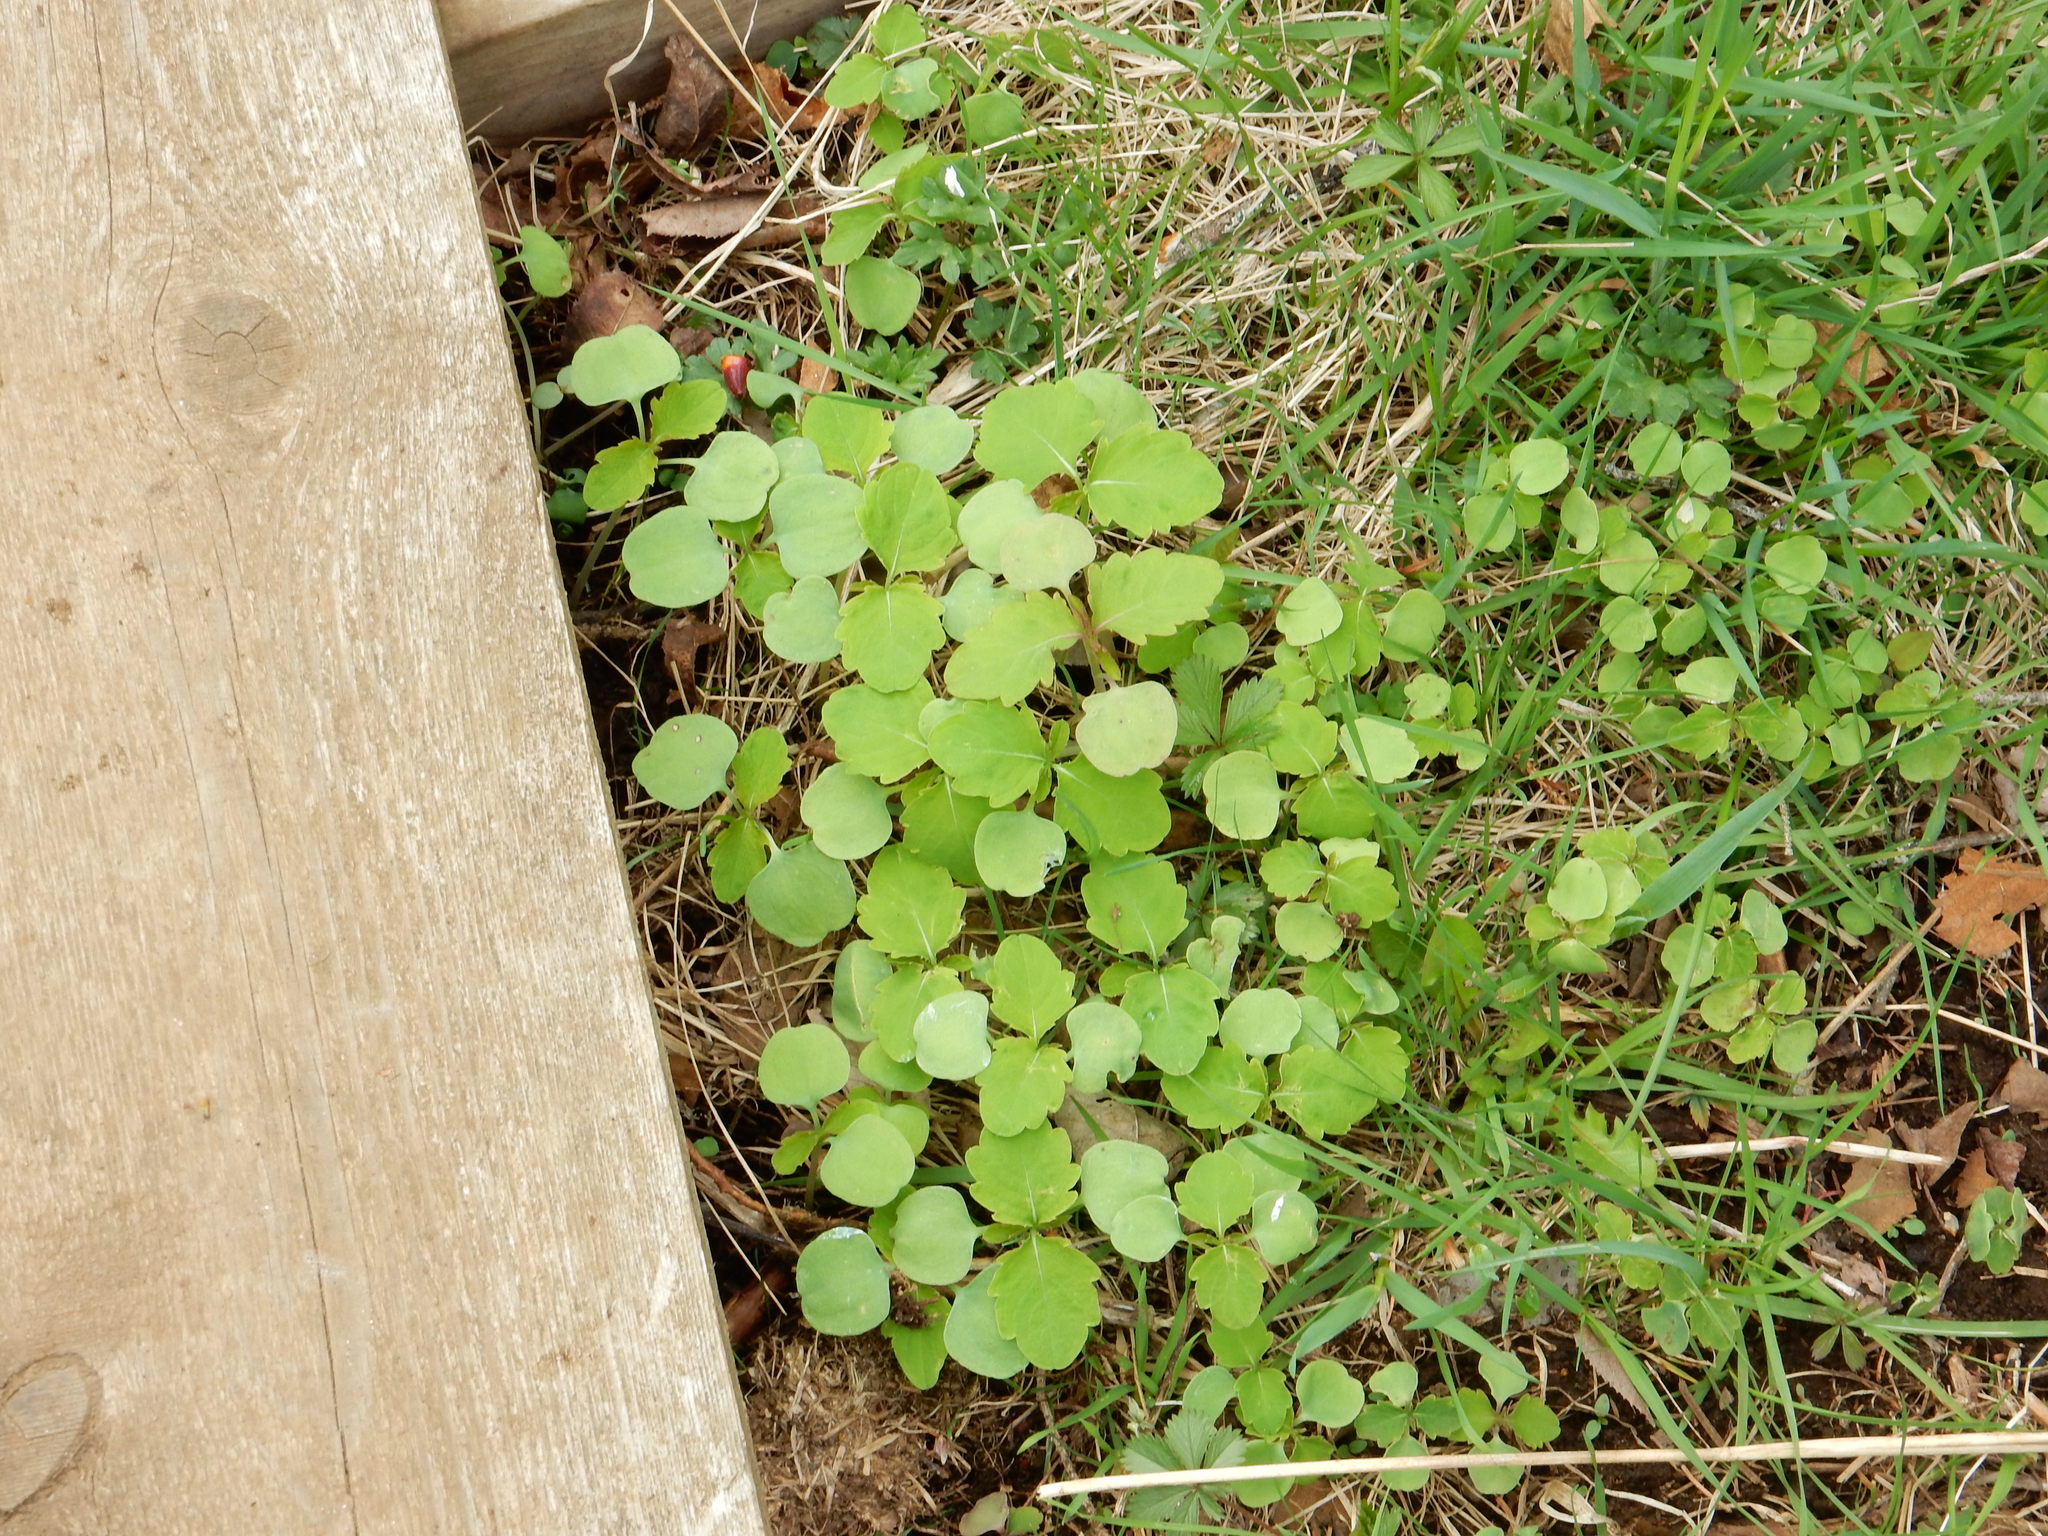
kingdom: Plantae
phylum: Tracheophyta
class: Magnoliopsida
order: Ericales
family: Balsaminaceae
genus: Impatiens
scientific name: Impatiens
